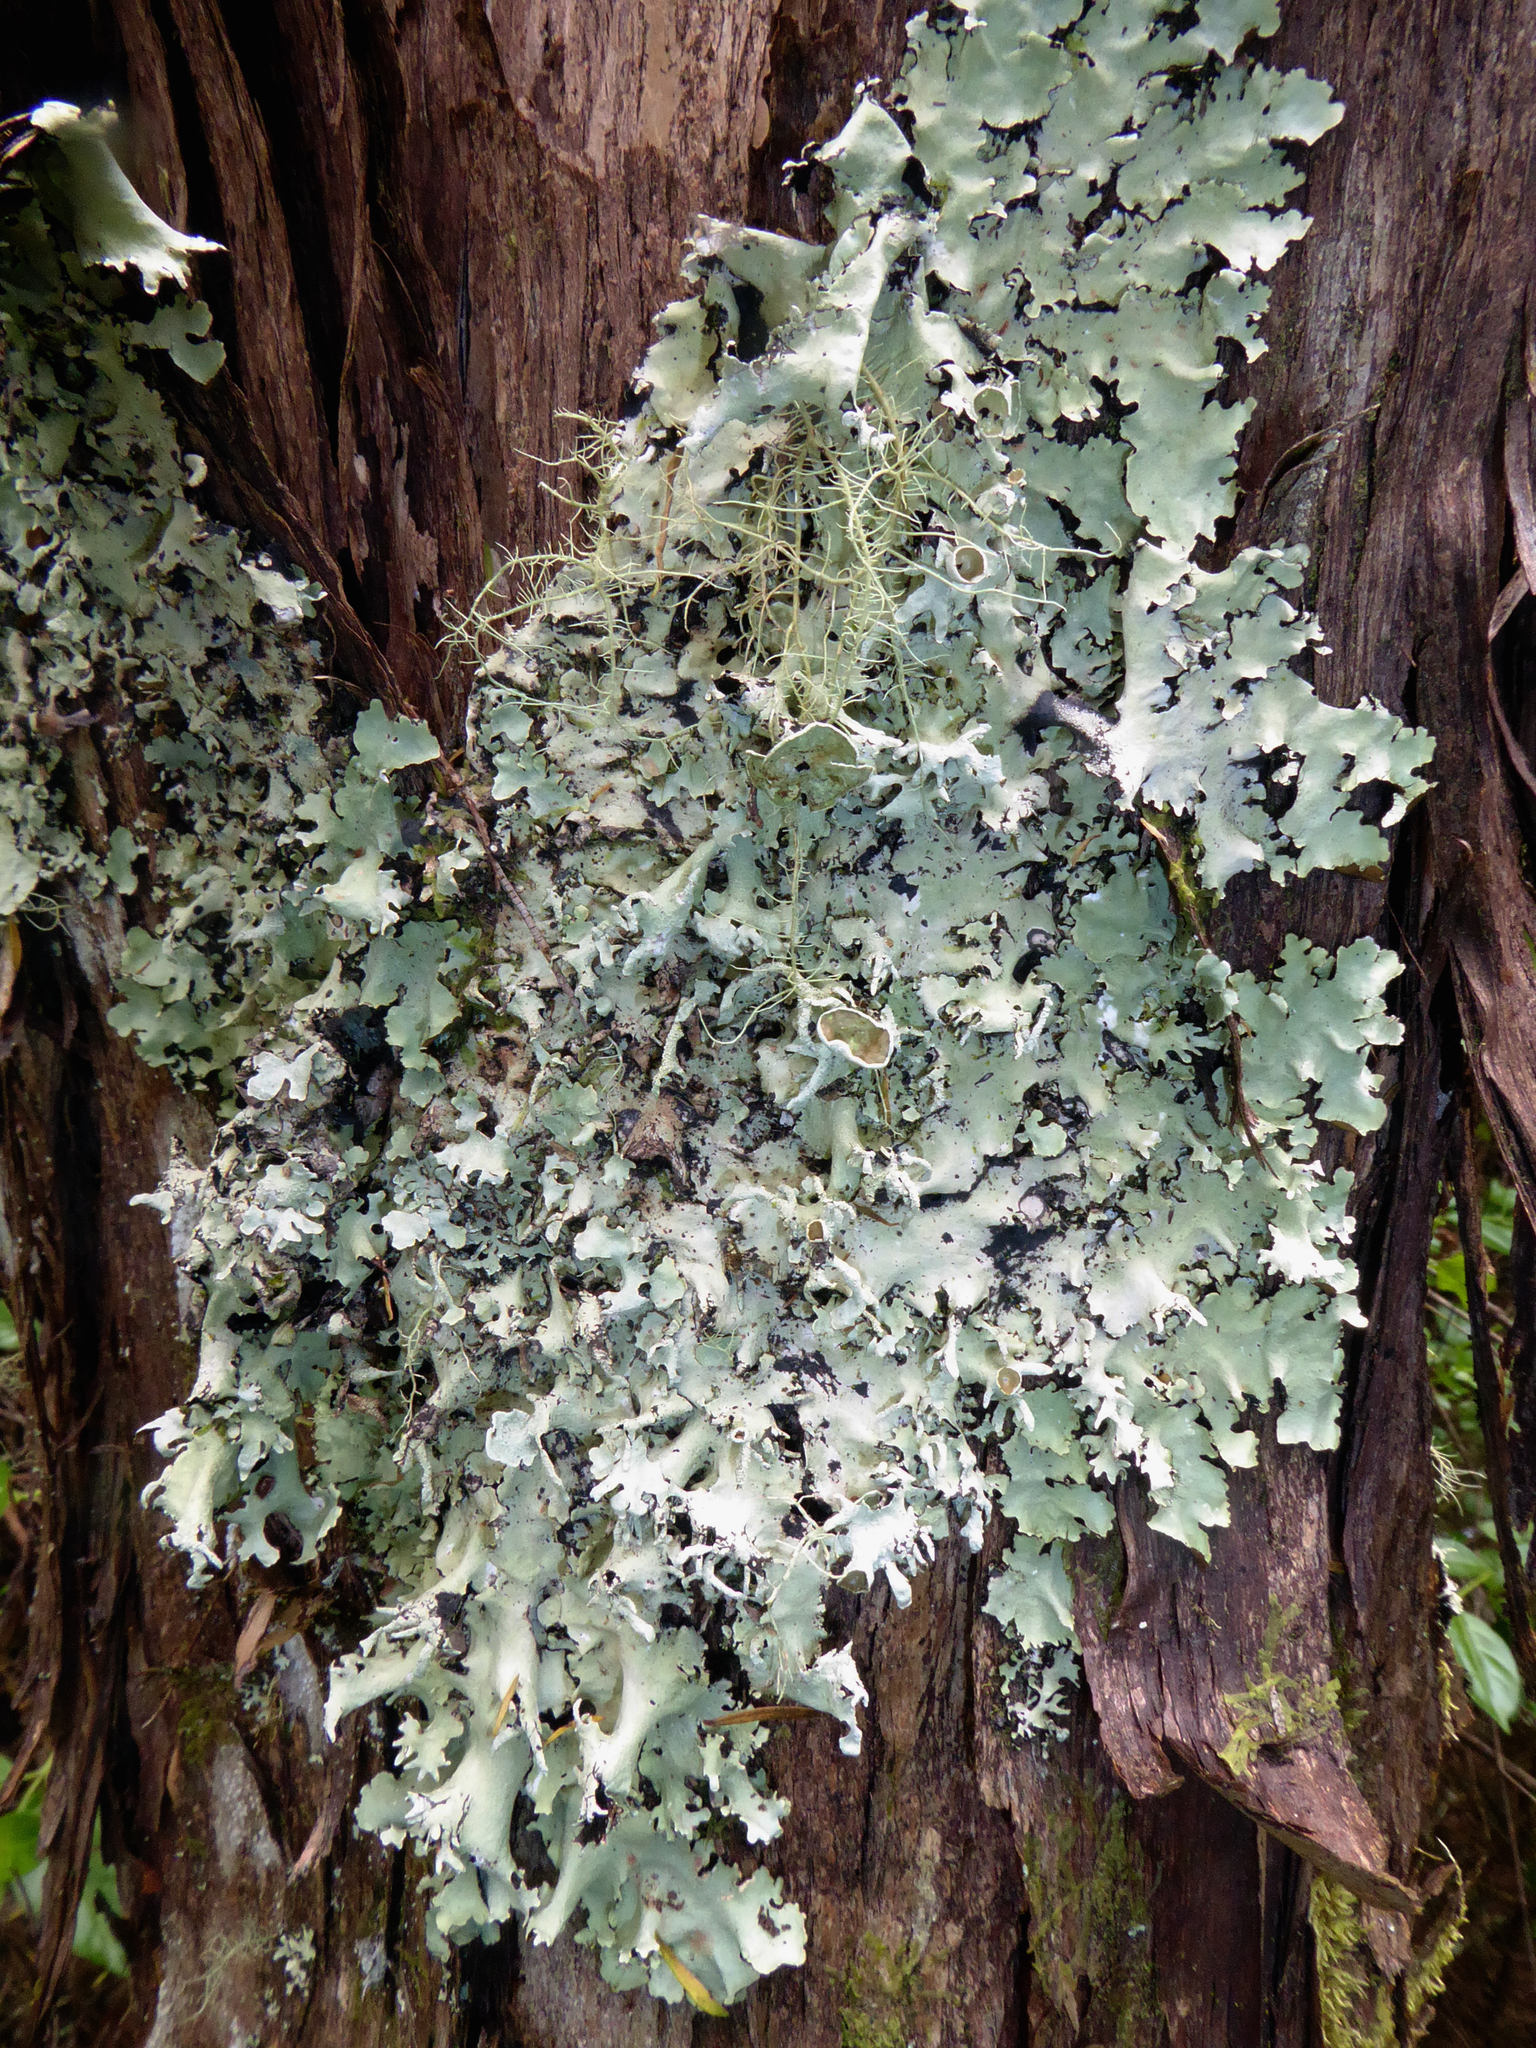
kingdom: Fungi
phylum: Ascomycota
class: Lecanoromycetes
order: Lecanorales
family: Parmeliaceae
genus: Parmotrema
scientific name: Parmotrema austrocetratum
